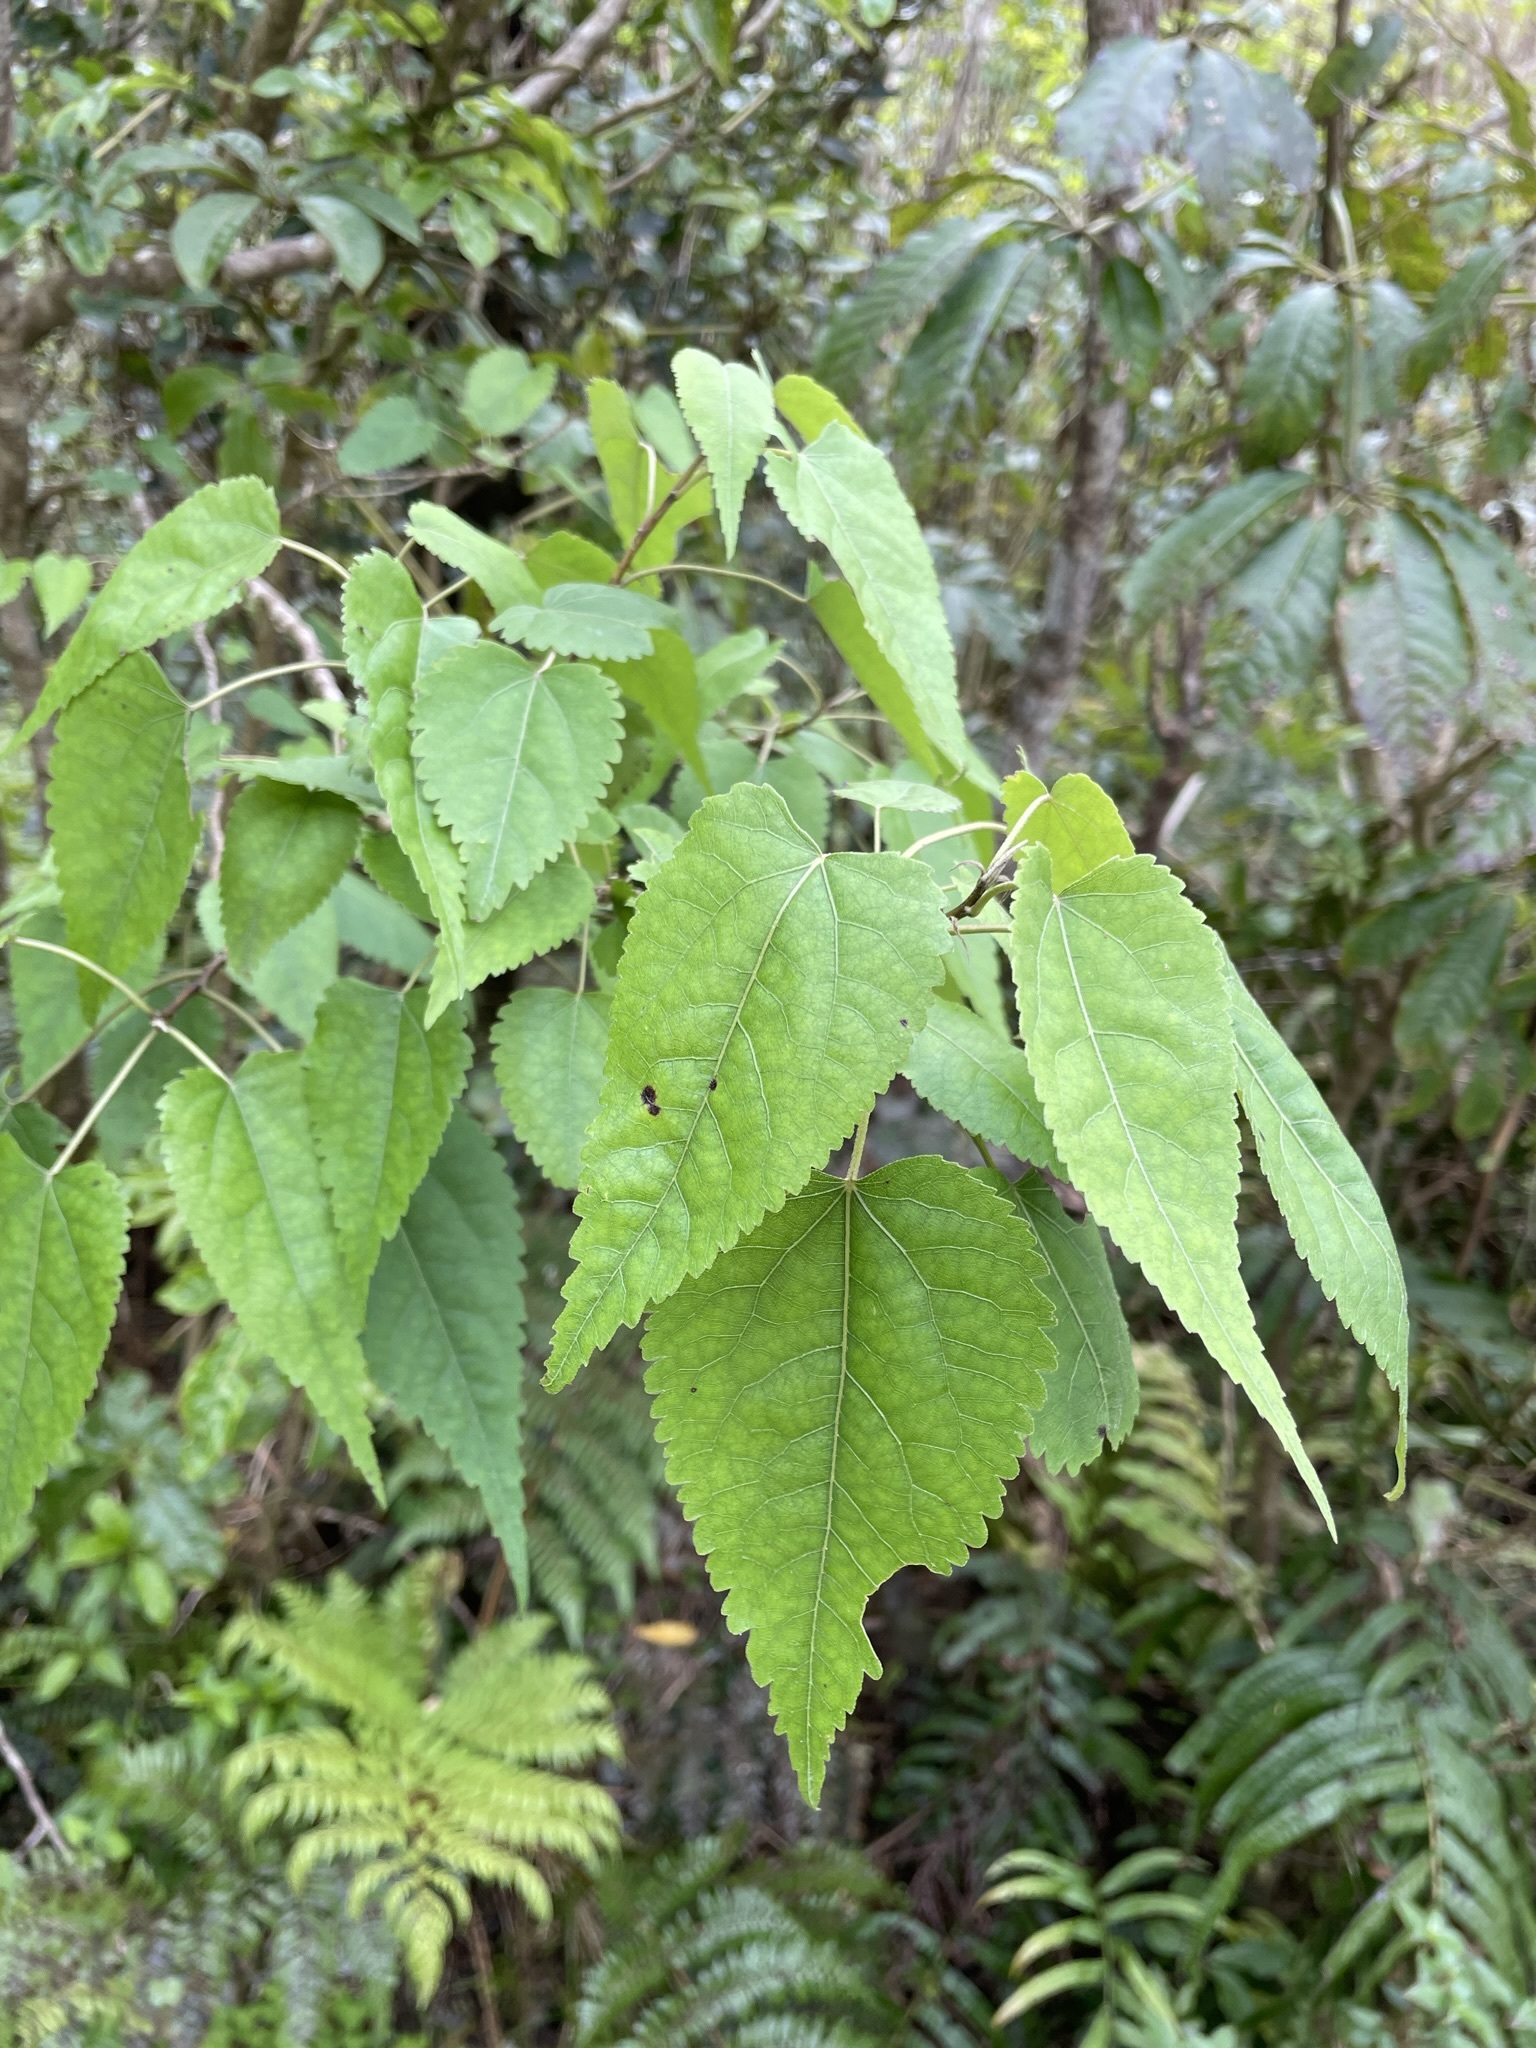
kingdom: Plantae
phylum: Tracheophyta
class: Magnoliopsida
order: Malvales
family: Malvaceae
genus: Hoheria
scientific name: Hoheria glabrata
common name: Mountain-ribbon
